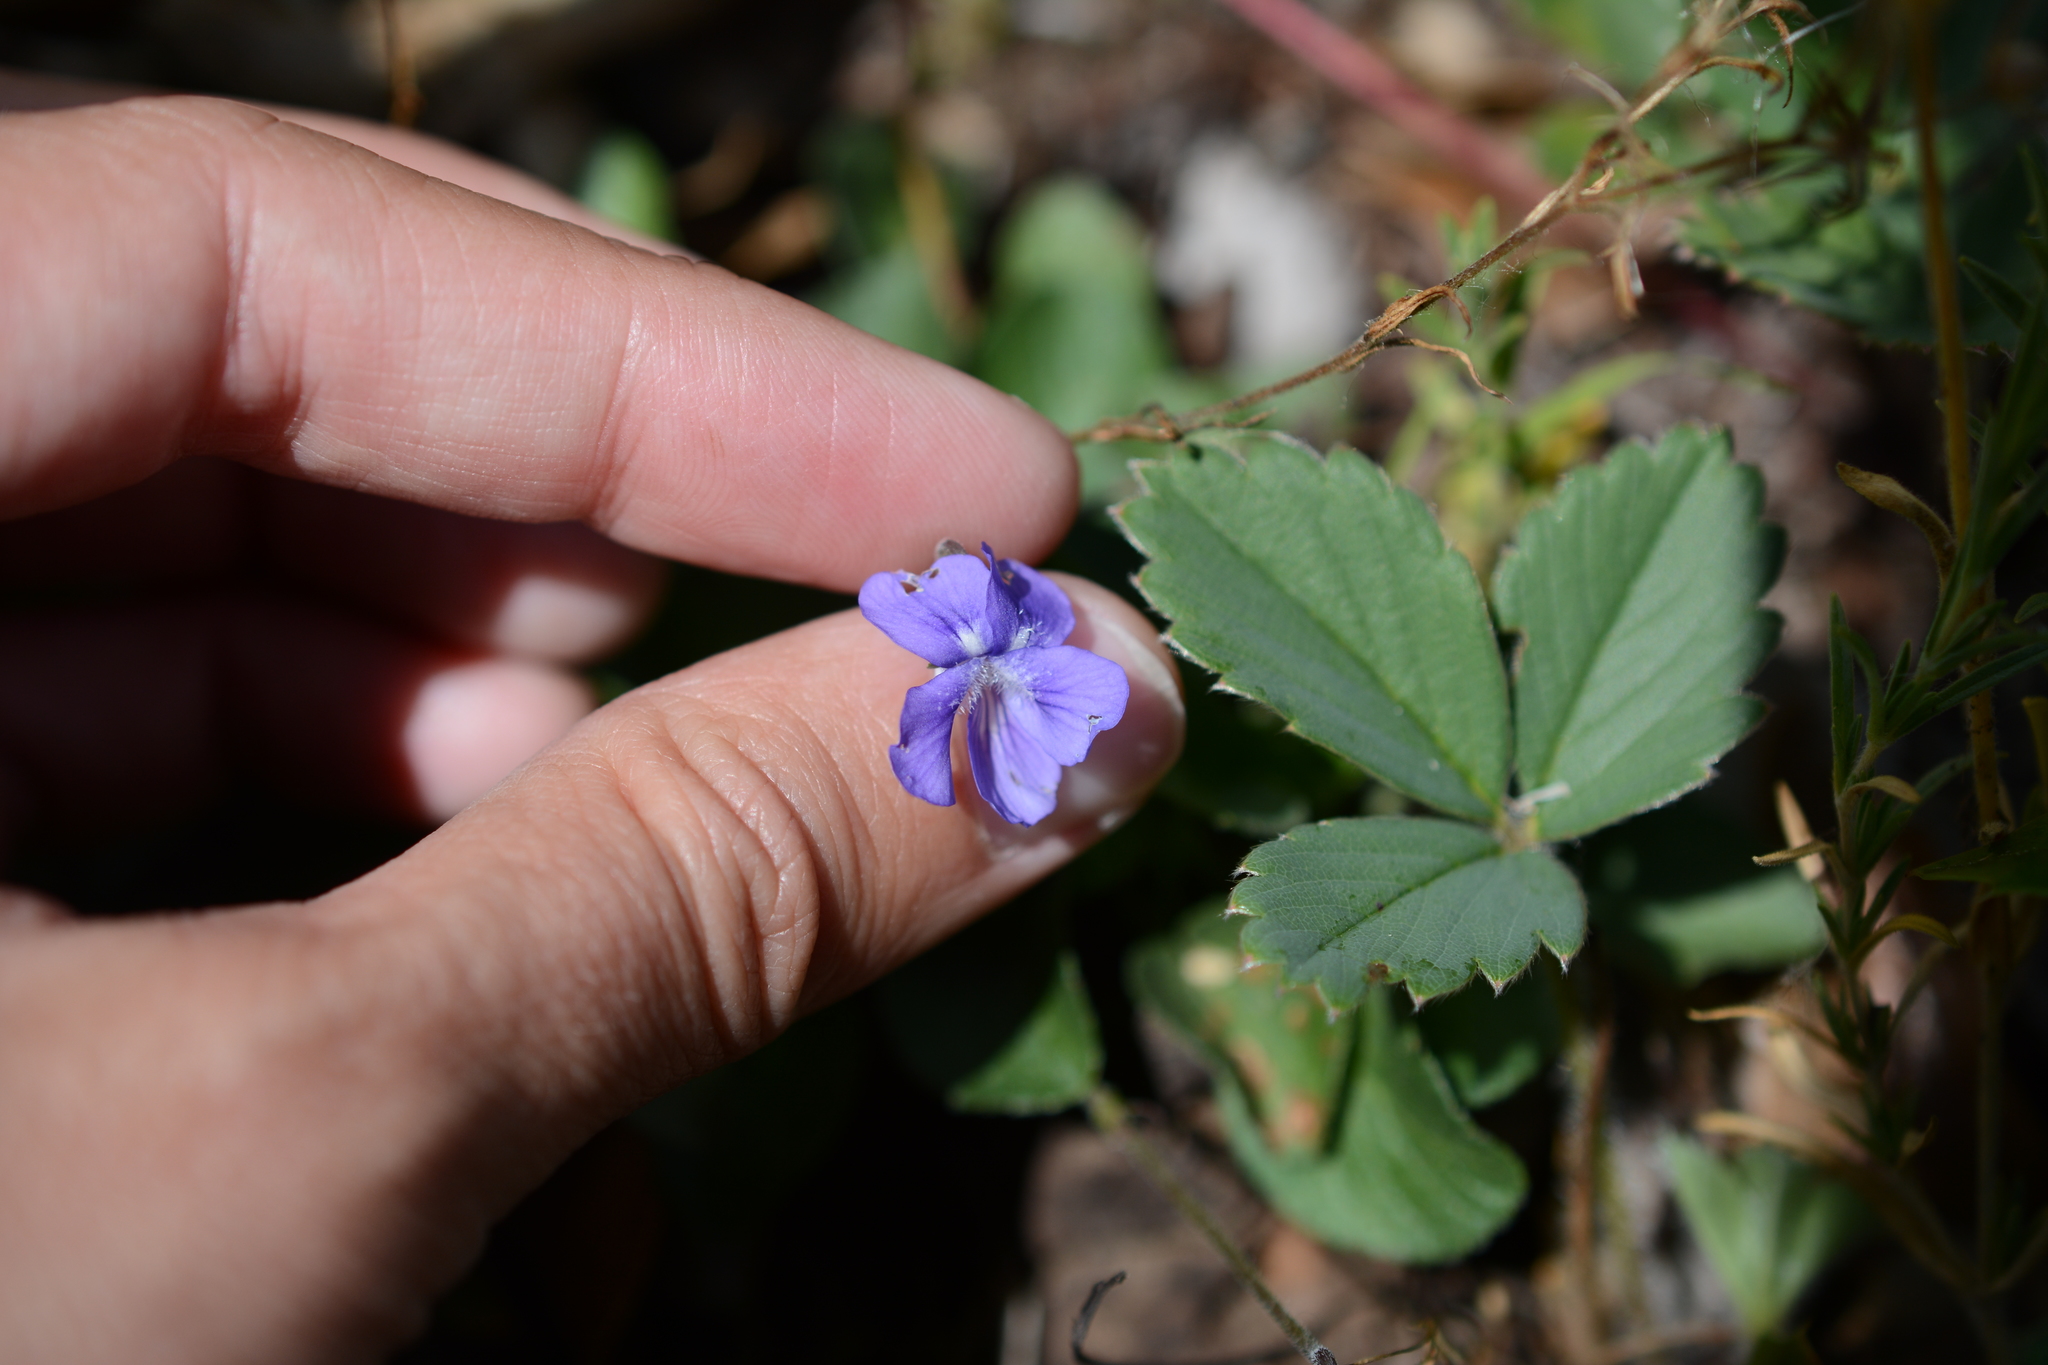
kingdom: Plantae
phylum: Tracheophyta
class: Magnoliopsida
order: Malpighiales
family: Violaceae
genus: Viola
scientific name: Viola adunca
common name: Sand violet
